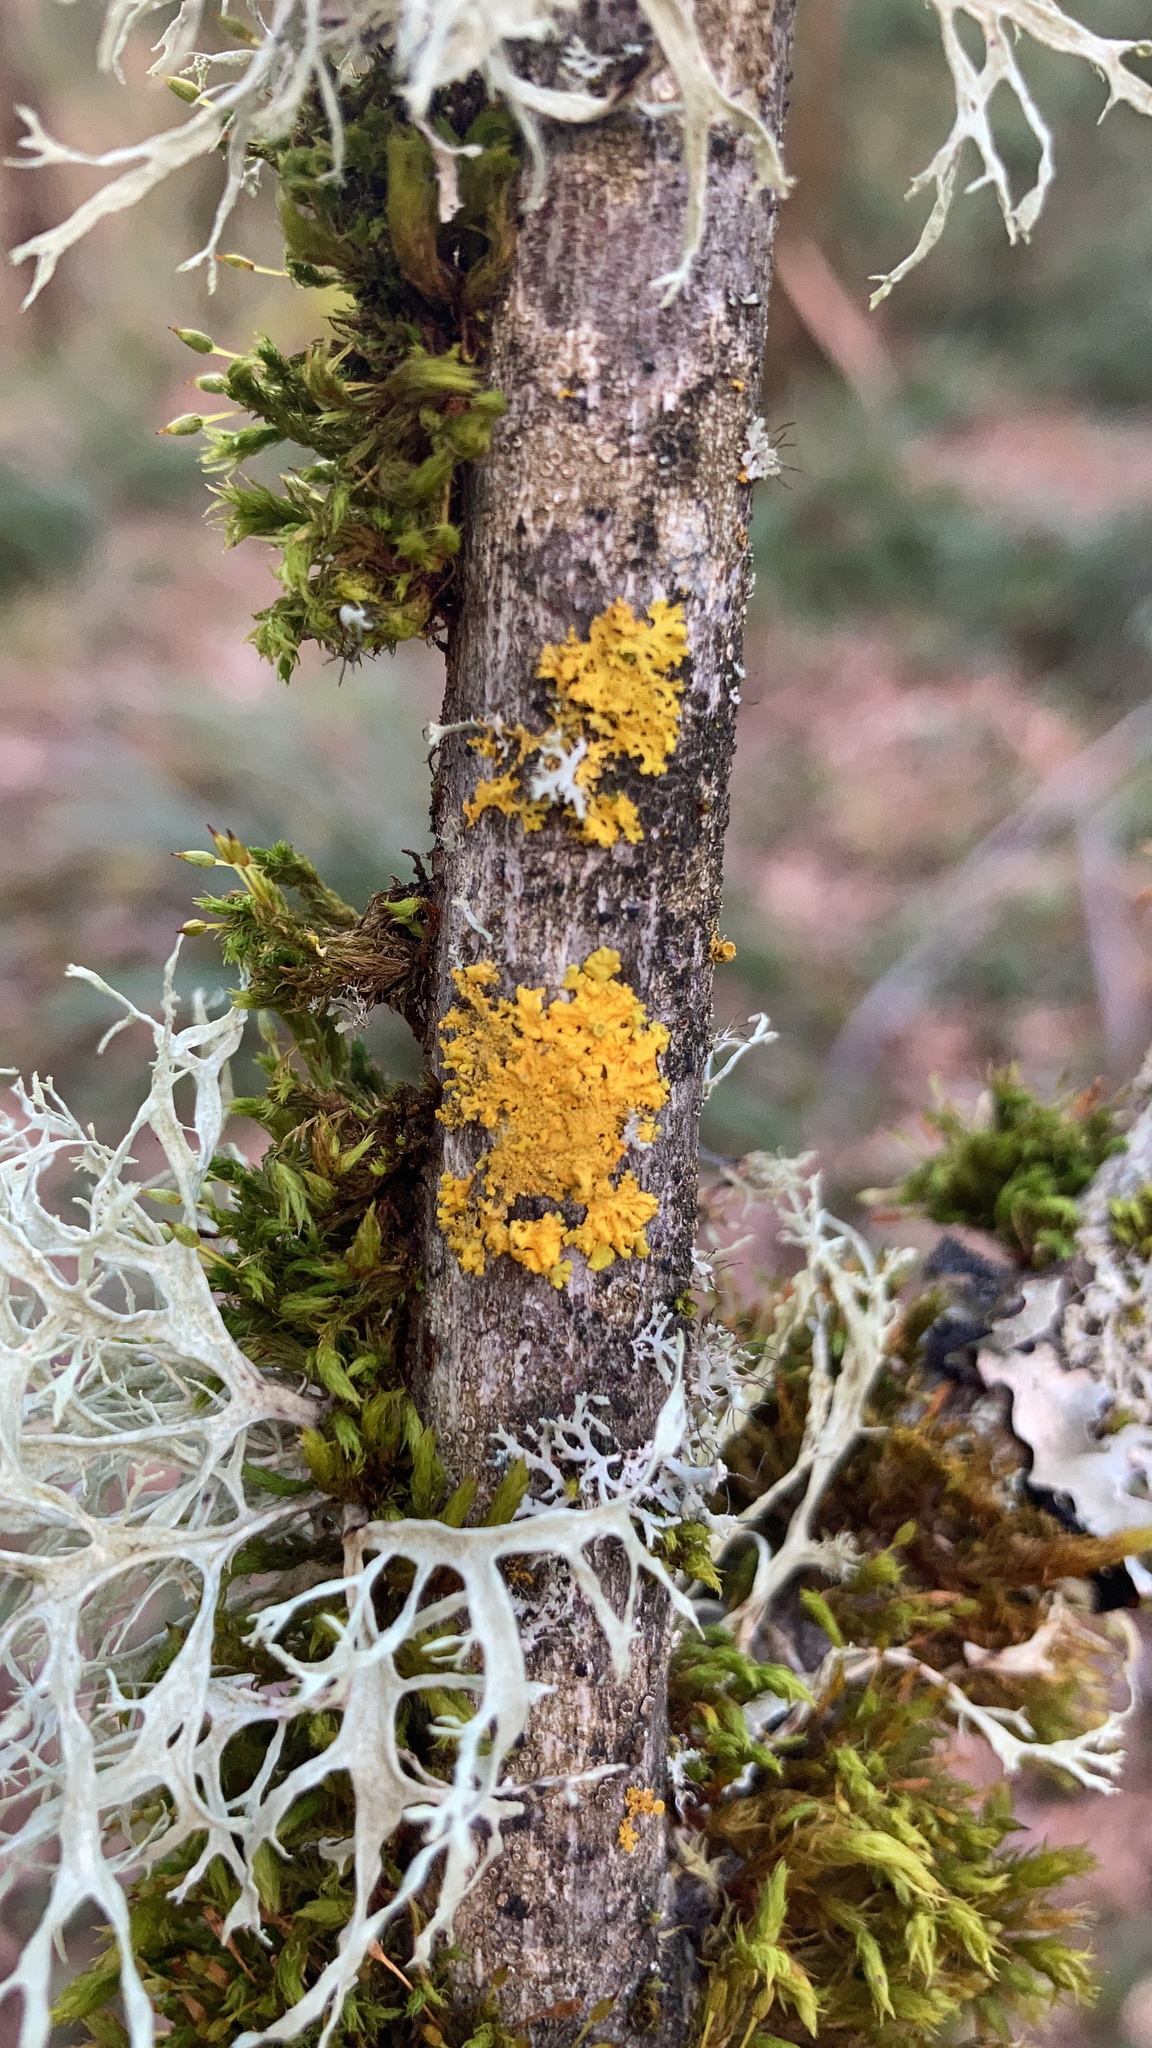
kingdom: Fungi
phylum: Ascomycota
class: Lecanoromycetes
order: Teloschistales
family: Teloschistaceae
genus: Xanthoria
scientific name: Xanthoria parietina
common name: Common orange lichen
